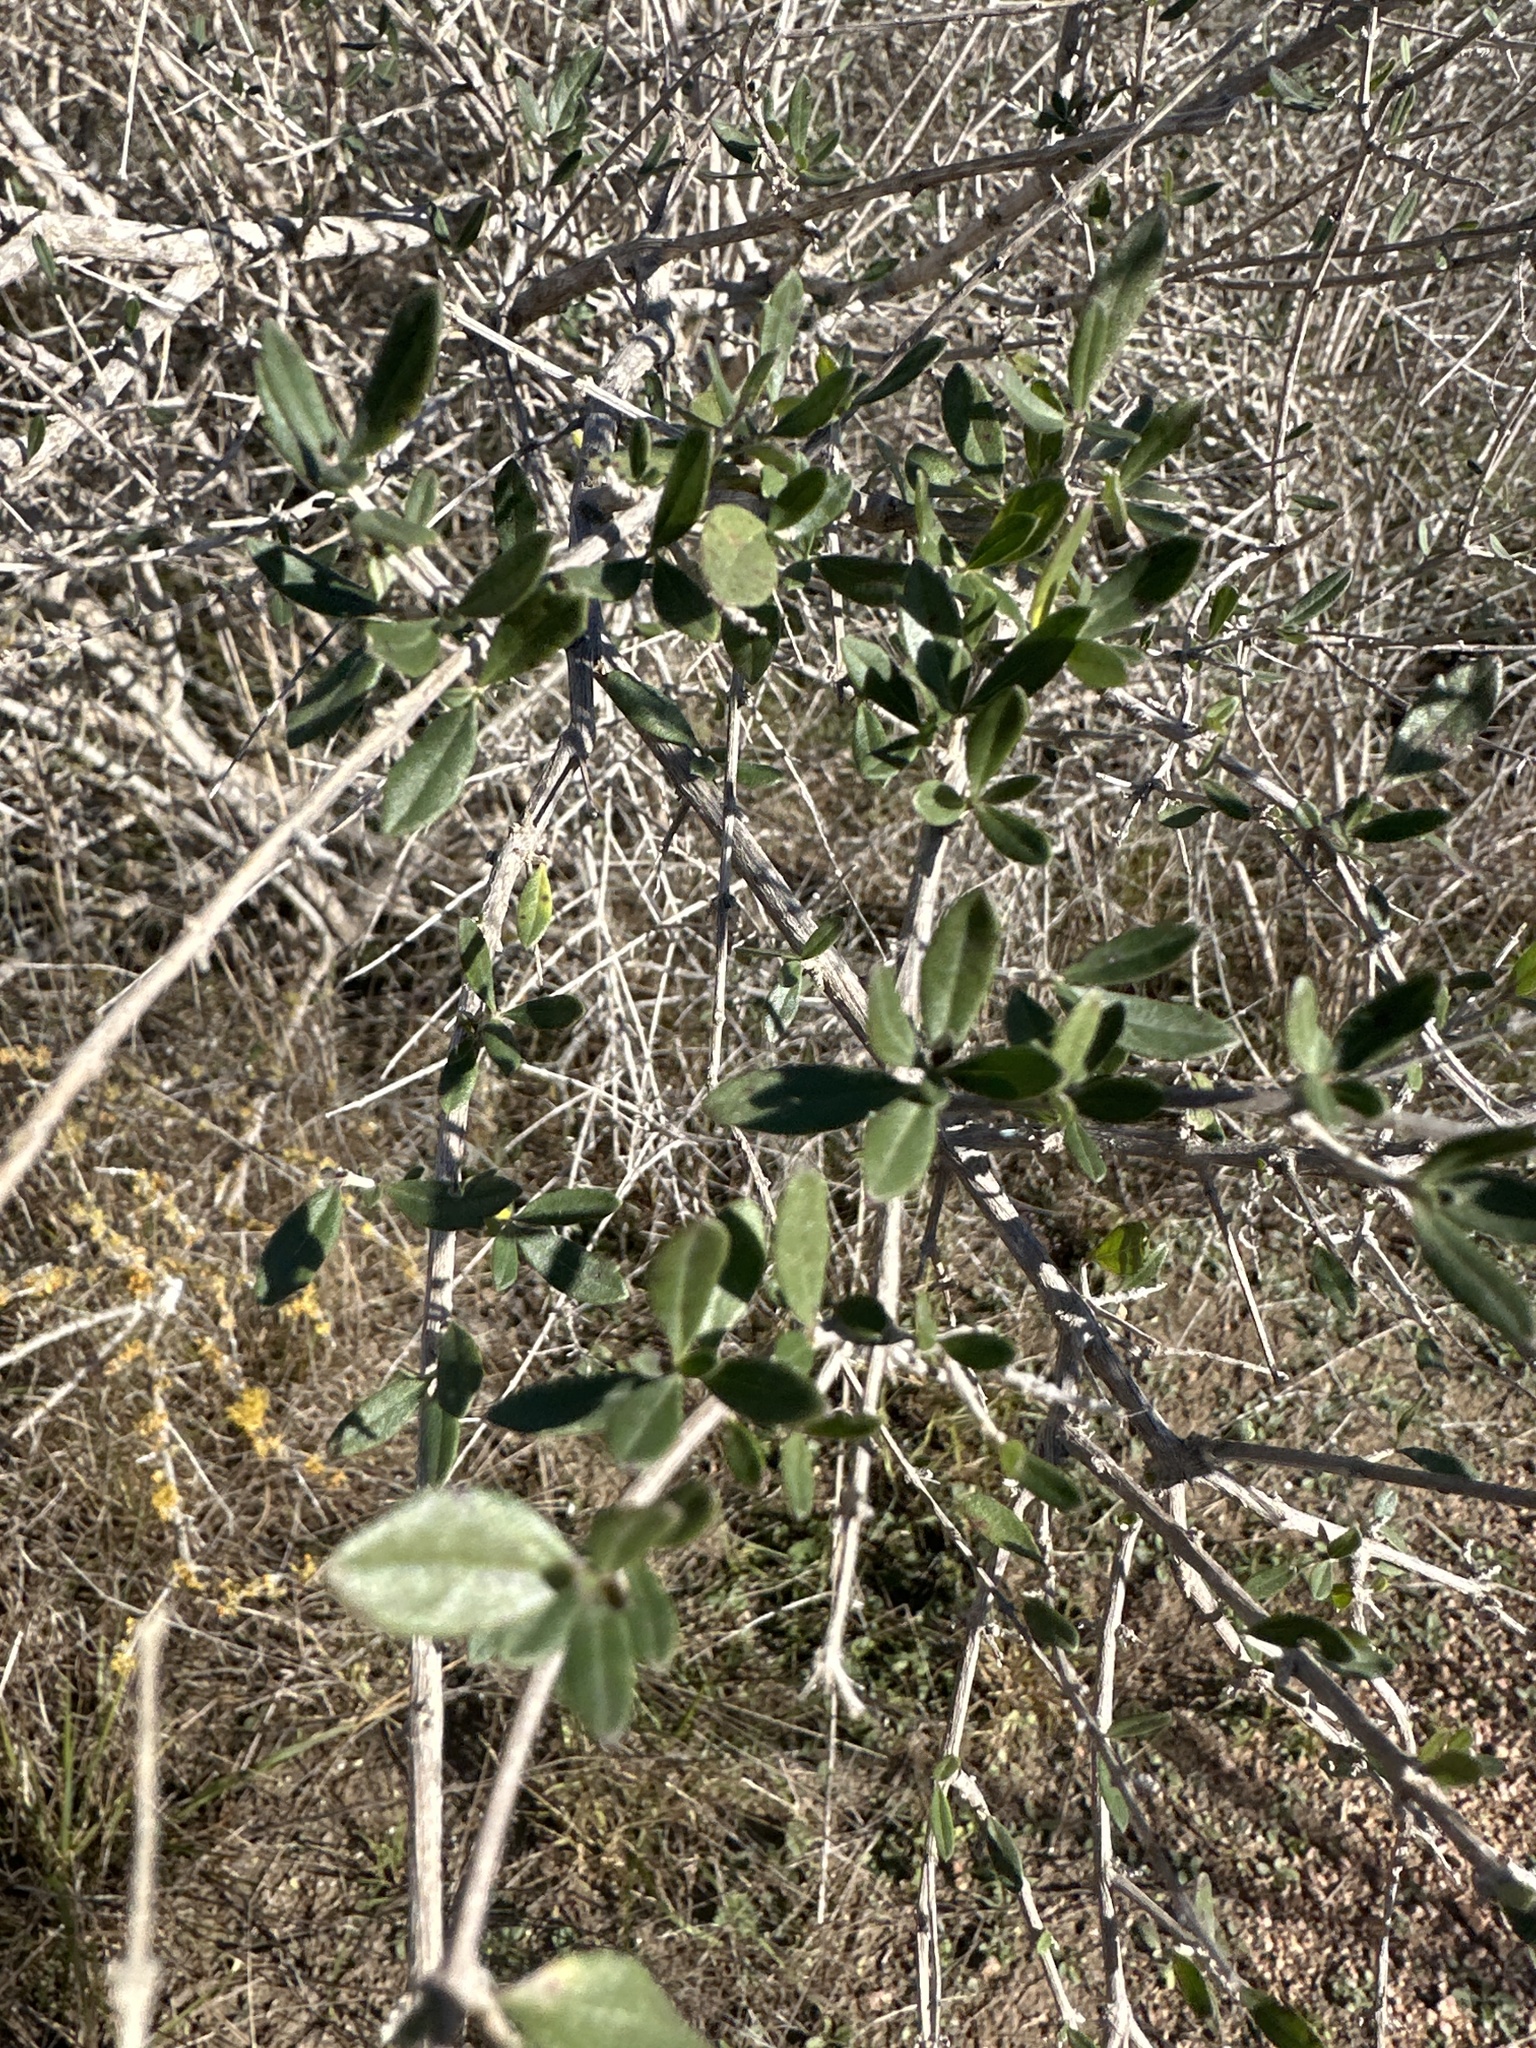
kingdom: Plantae
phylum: Tracheophyta
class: Magnoliopsida
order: Lamiales
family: Verbenaceae
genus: Aloysia
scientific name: Aloysia gratissima
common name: Common bee-brush
